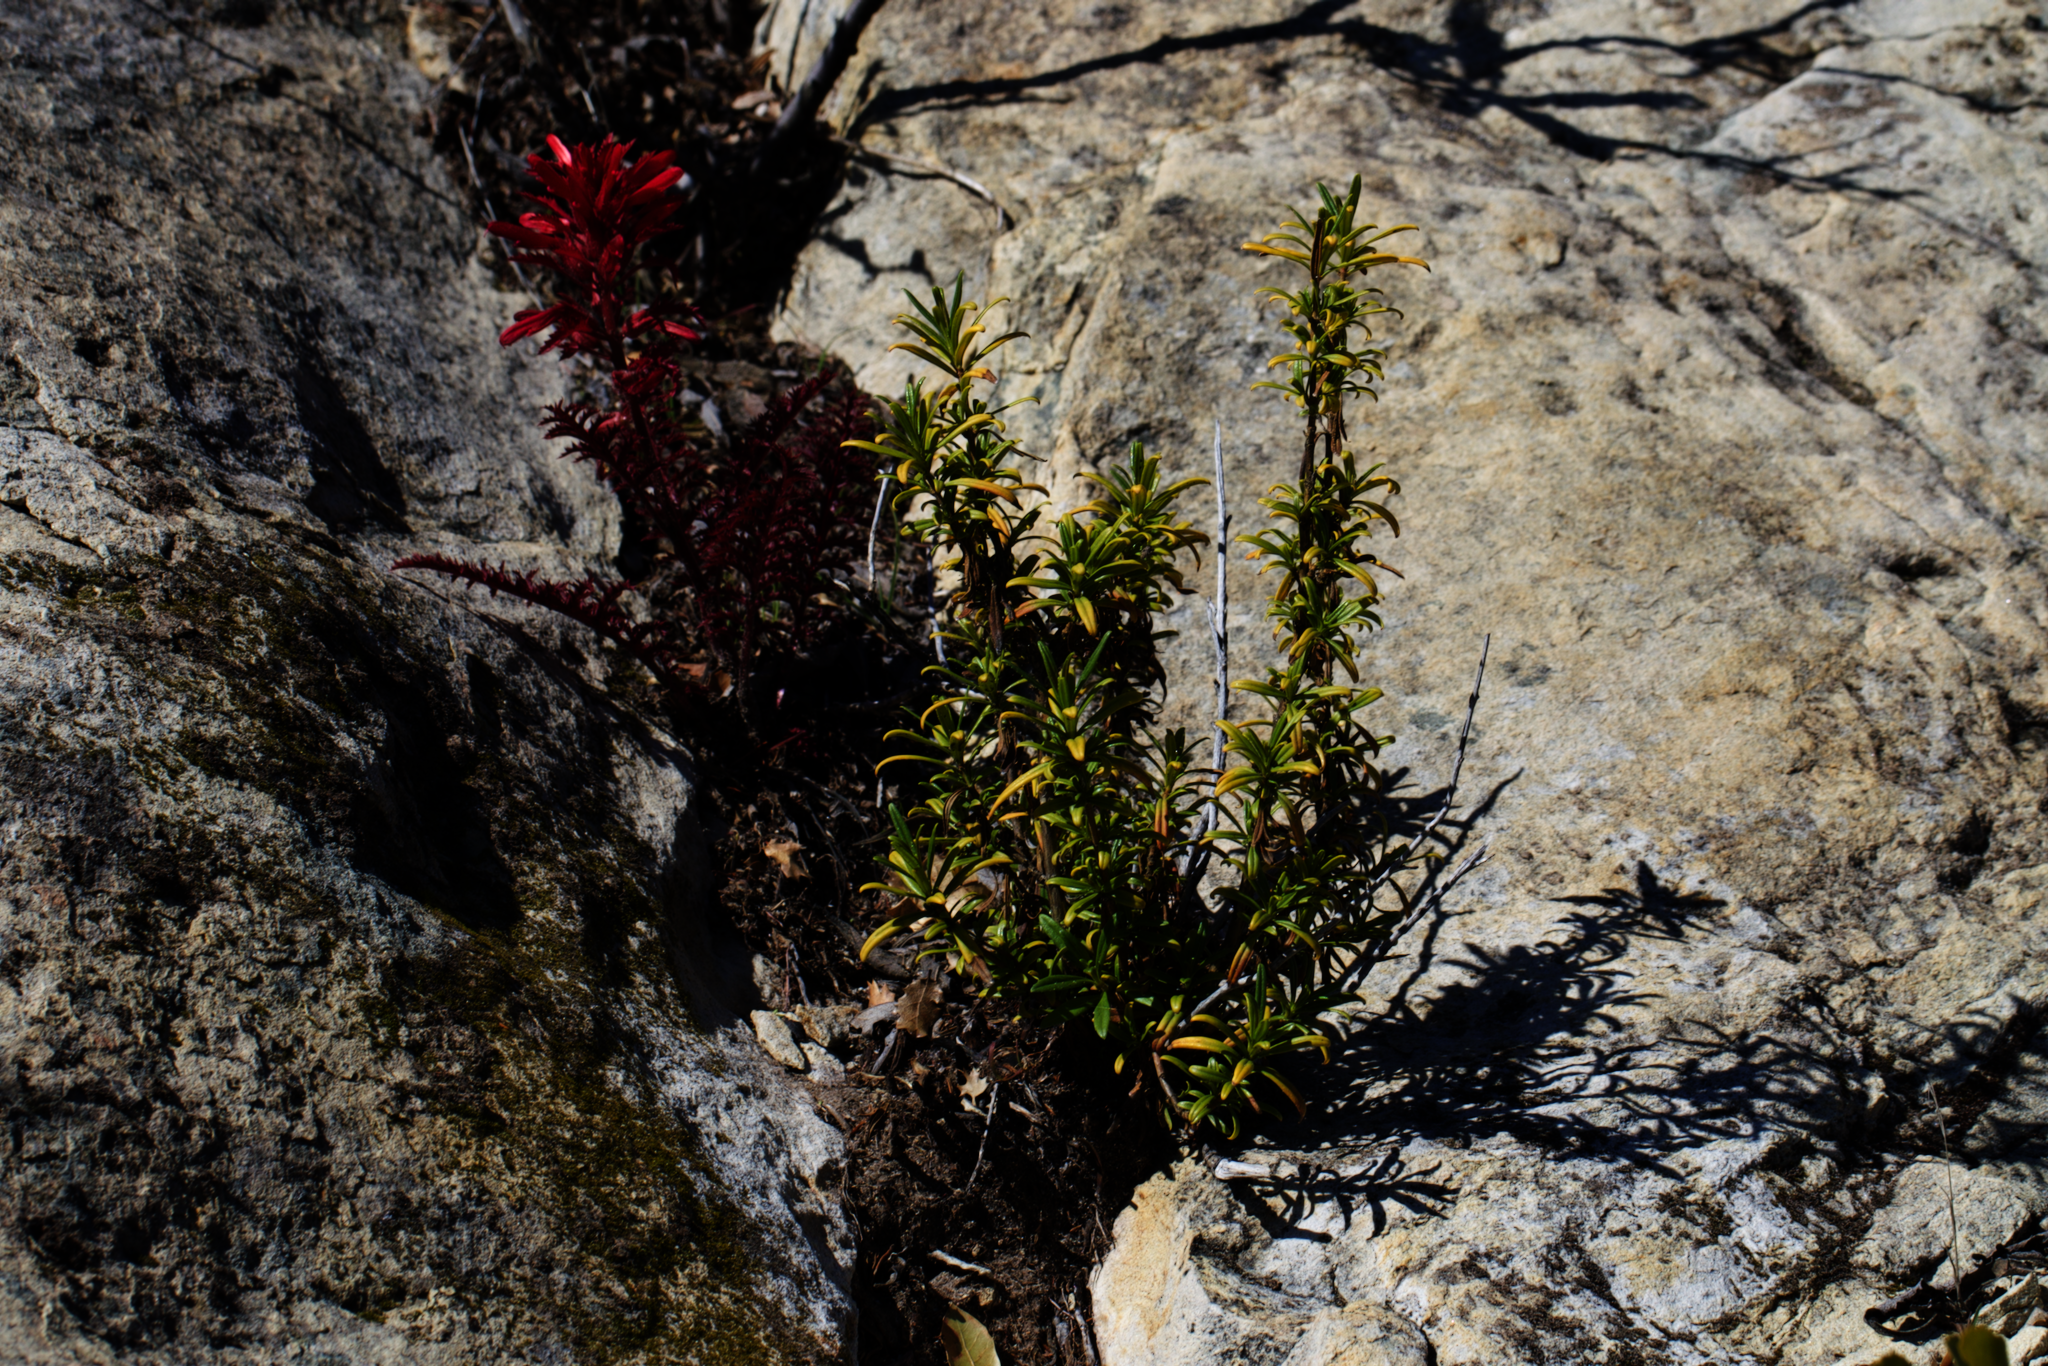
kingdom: Plantae
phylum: Tracheophyta
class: Magnoliopsida
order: Lamiales
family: Phrymaceae
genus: Diplacus
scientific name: Diplacus linearis
